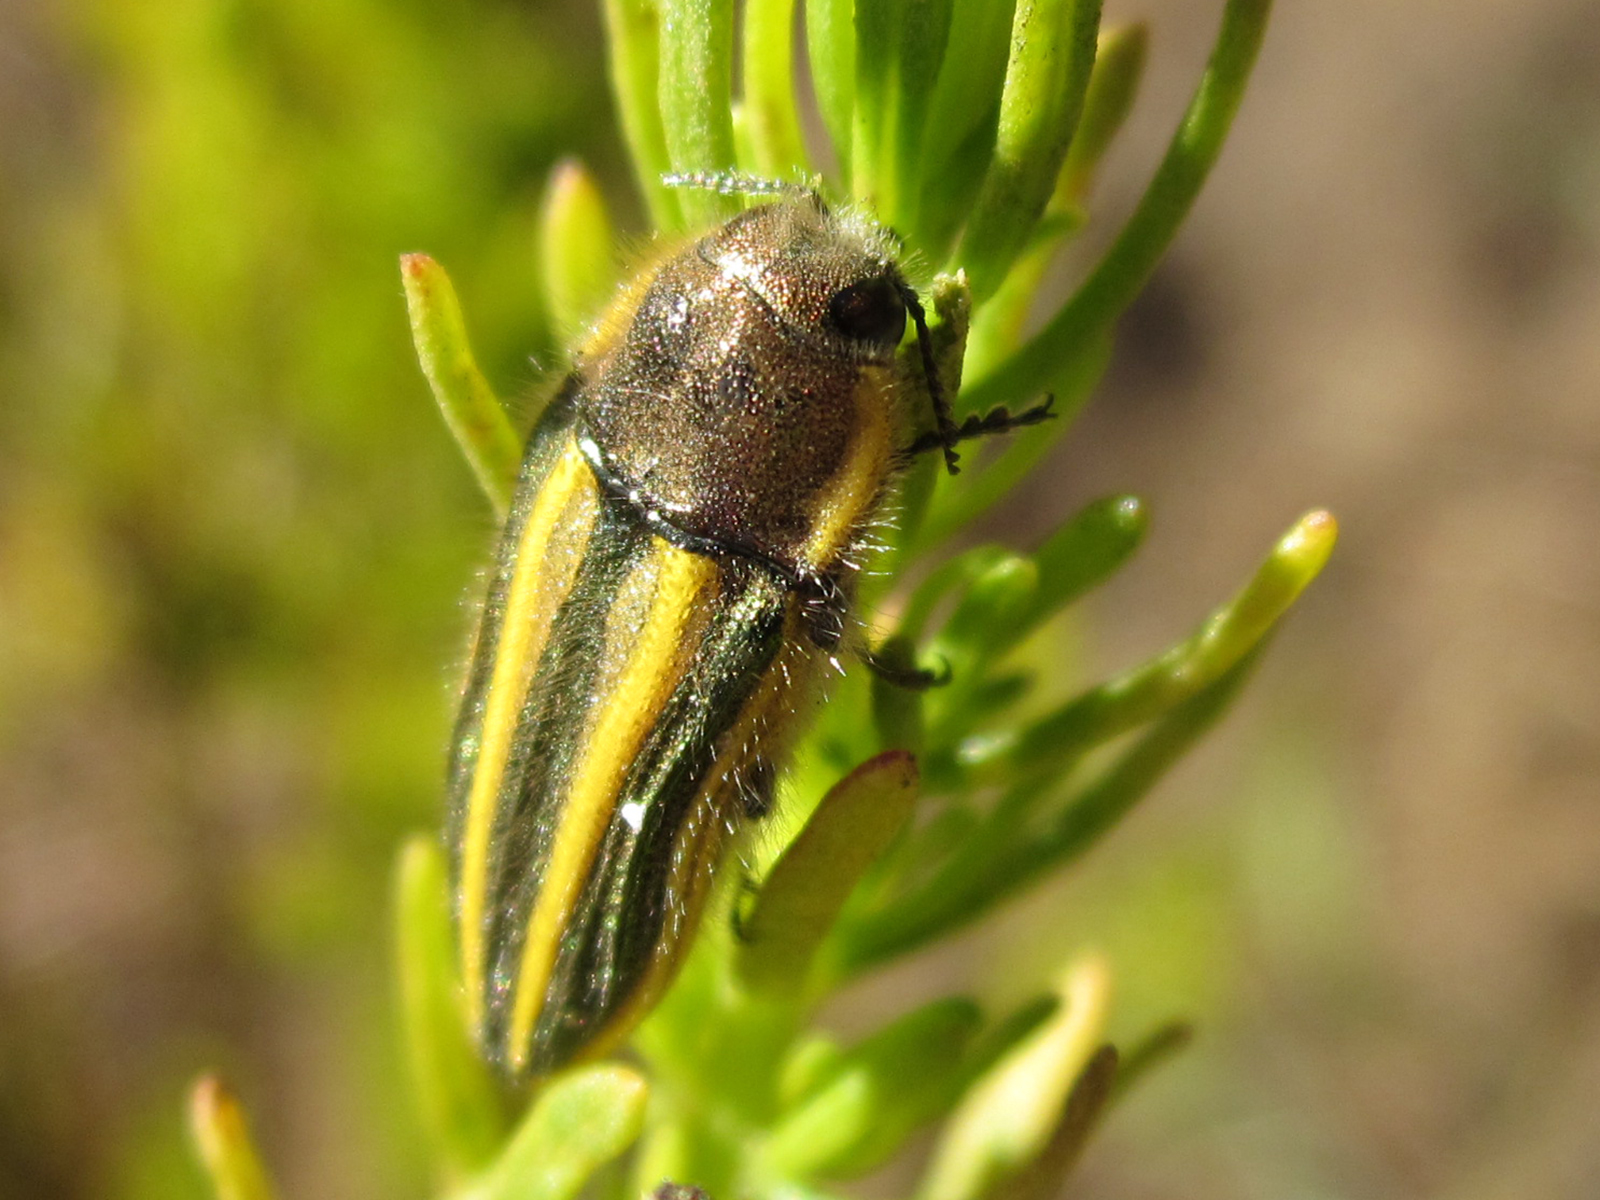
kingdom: Animalia
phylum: Arthropoda
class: Insecta
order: Coleoptera
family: Buprestidae
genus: Lasionota
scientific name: Lasionota rouletii
